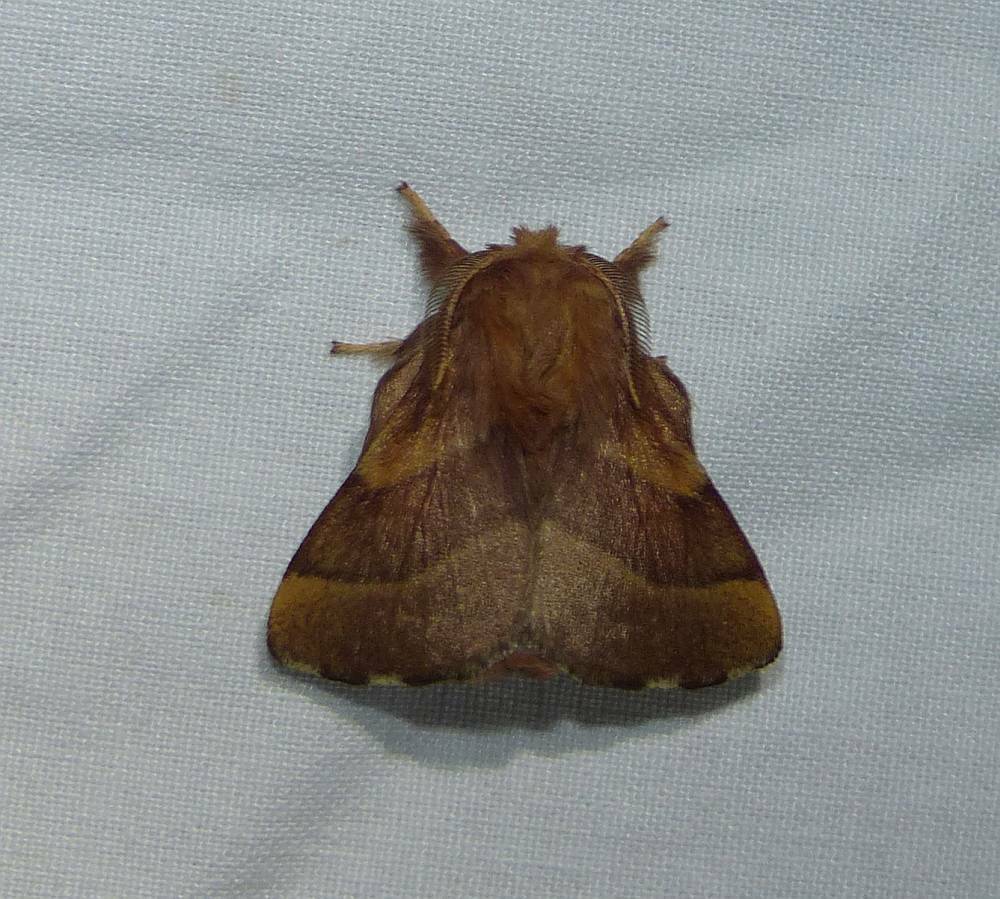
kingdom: Animalia
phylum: Arthropoda
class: Insecta
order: Lepidoptera
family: Lasiocampidae
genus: Malacosoma
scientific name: Malacosoma disstria
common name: Forest tent caterpillar
